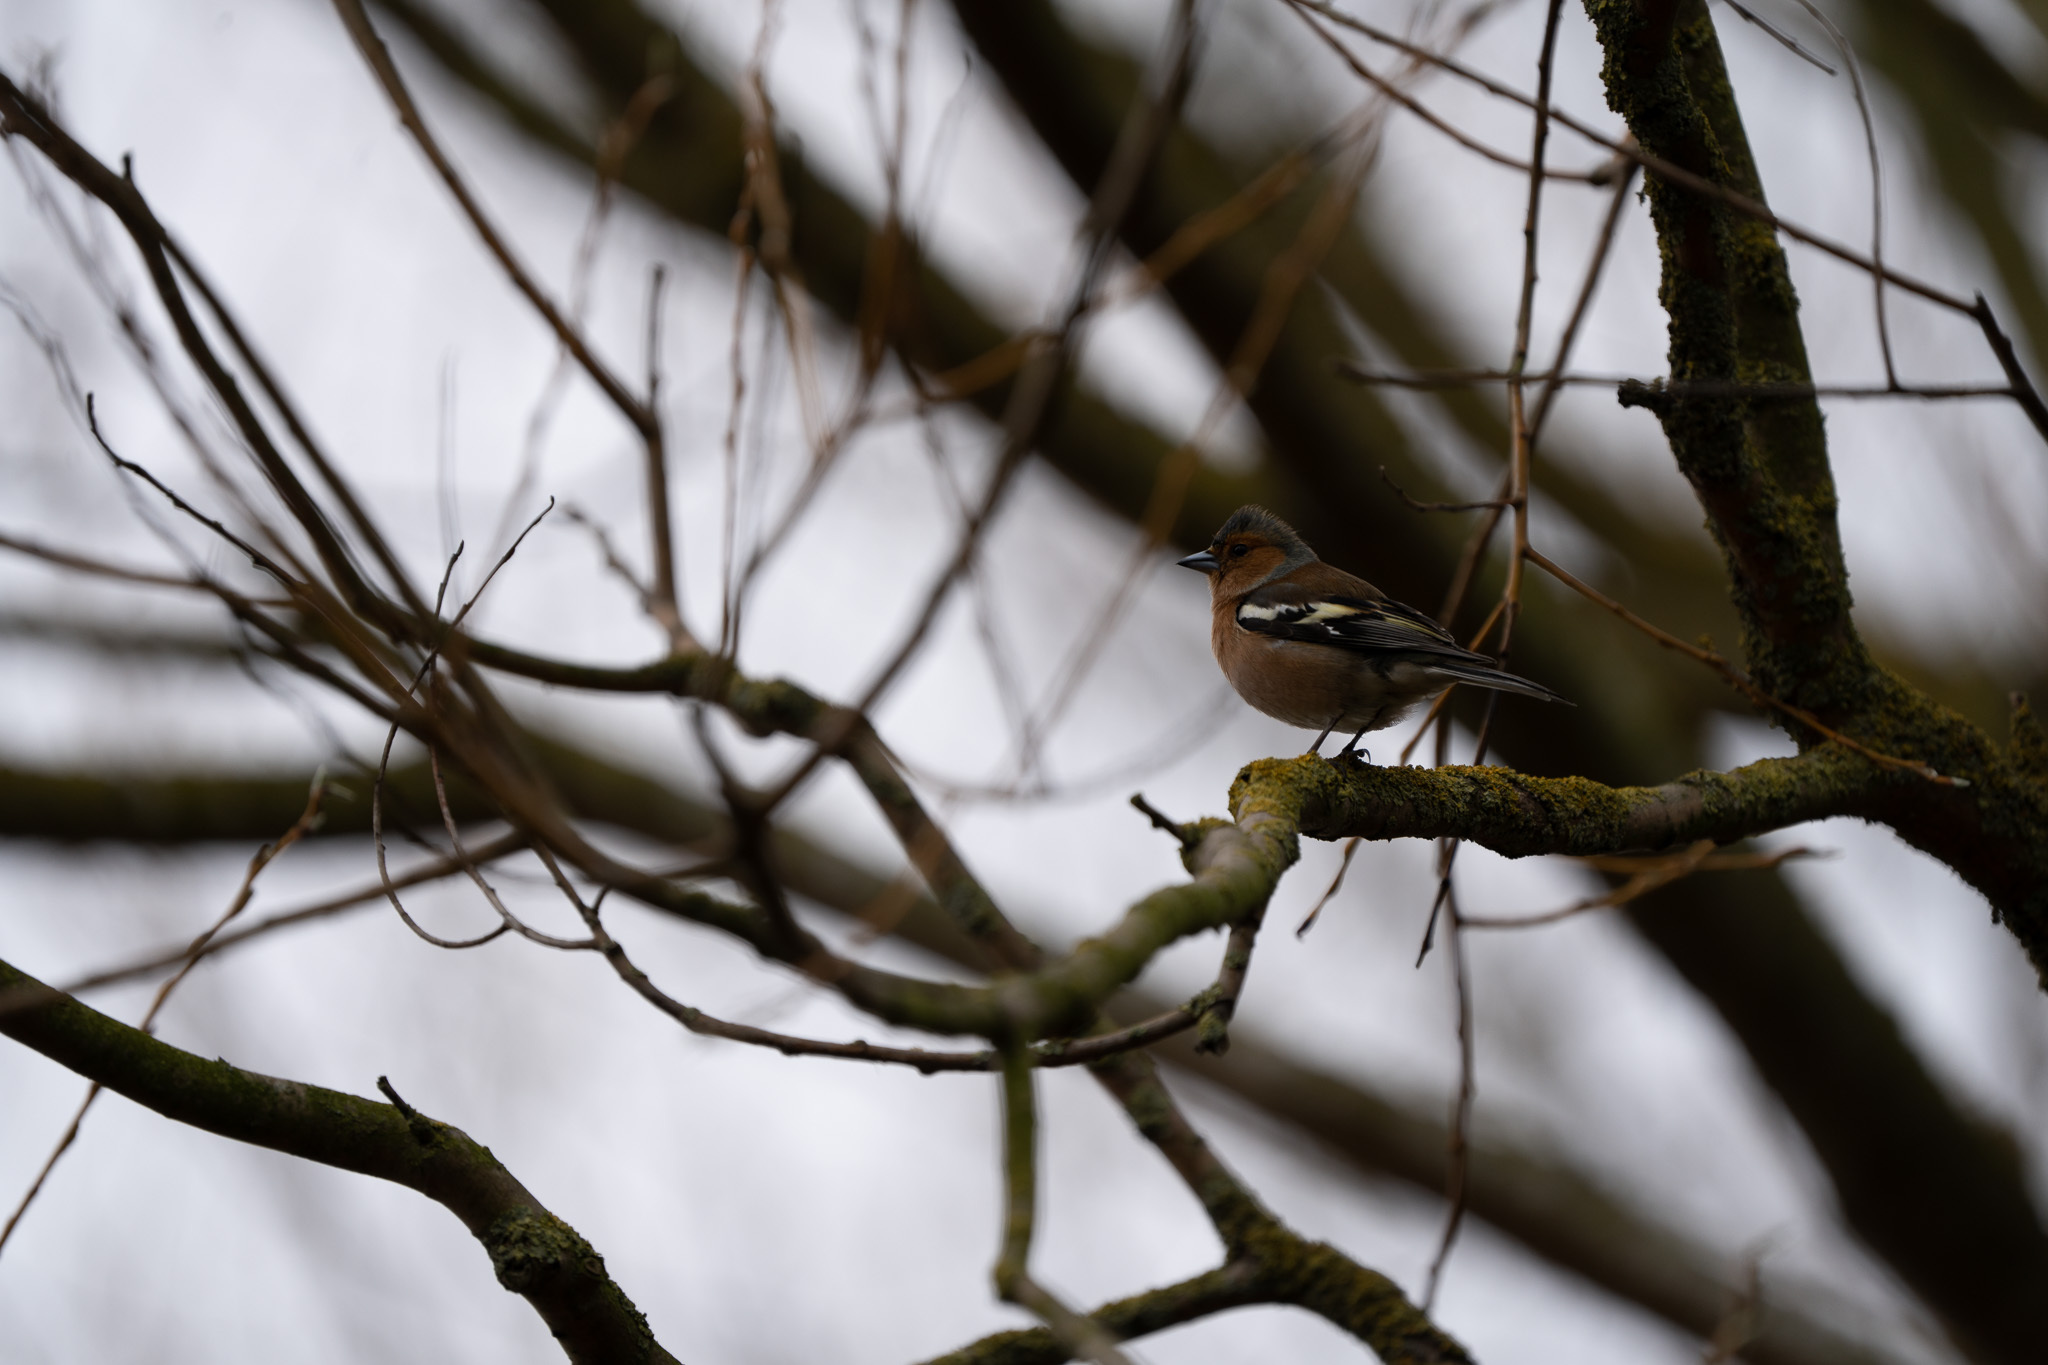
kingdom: Animalia
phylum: Chordata
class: Aves
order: Passeriformes
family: Fringillidae
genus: Fringilla
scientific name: Fringilla coelebs
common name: Common chaffinch
